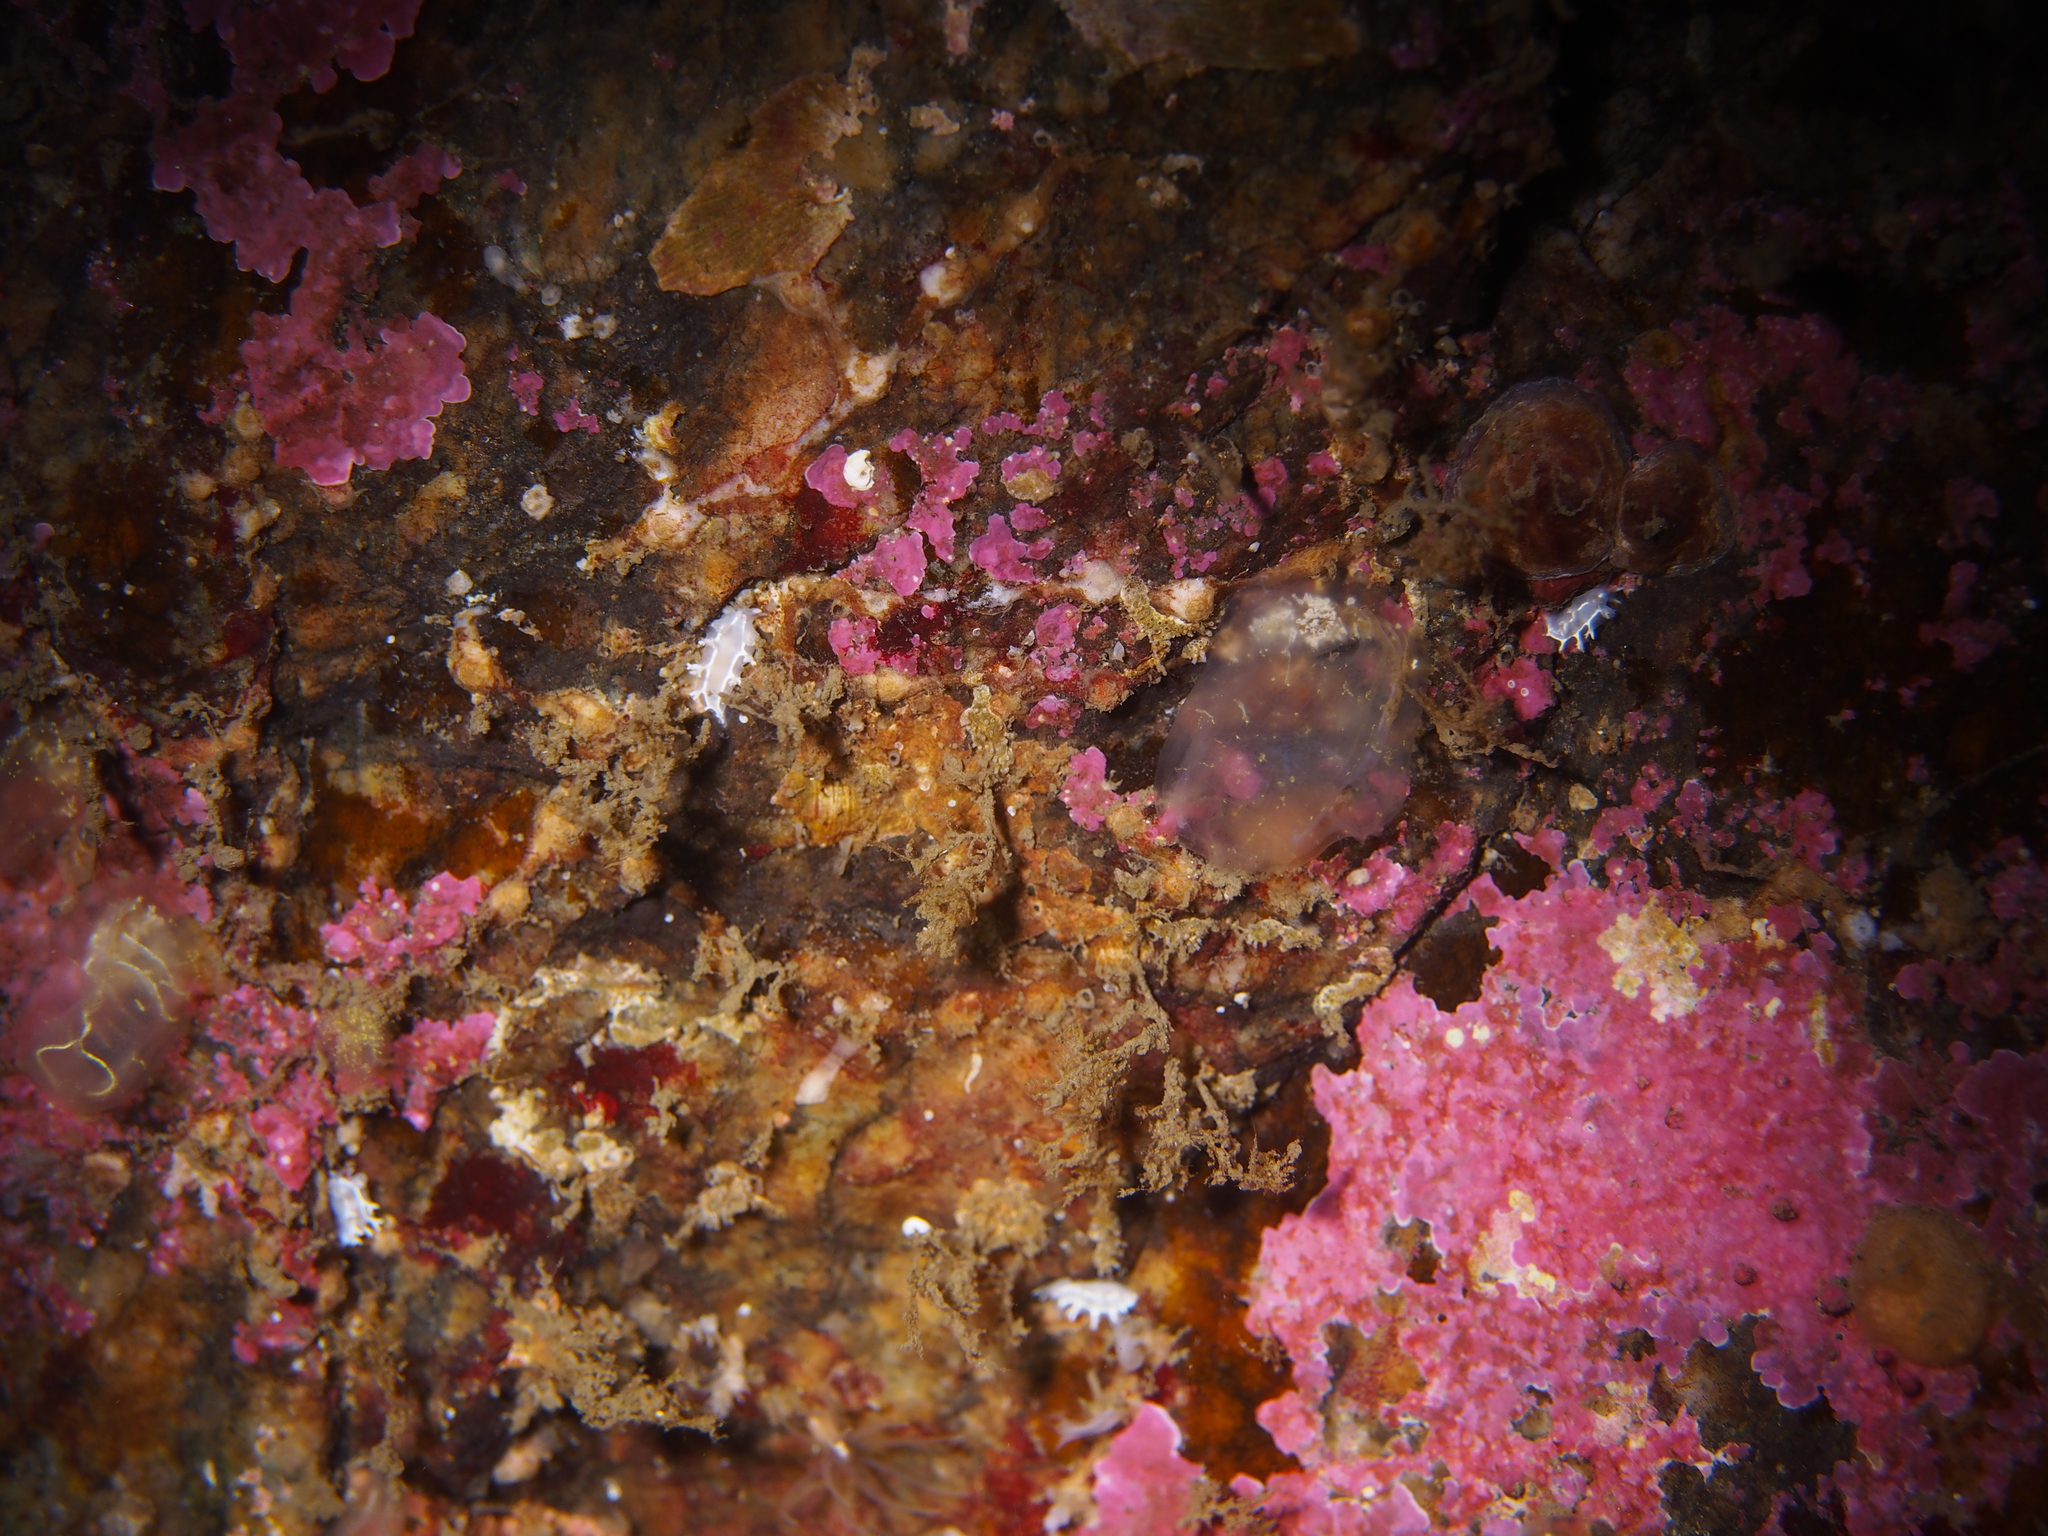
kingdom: Animalia
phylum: Mollusca
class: Gastropoda
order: Nudibranchia
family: Tritoniidae
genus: Duvaucelia
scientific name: Duvaucelia lineata
